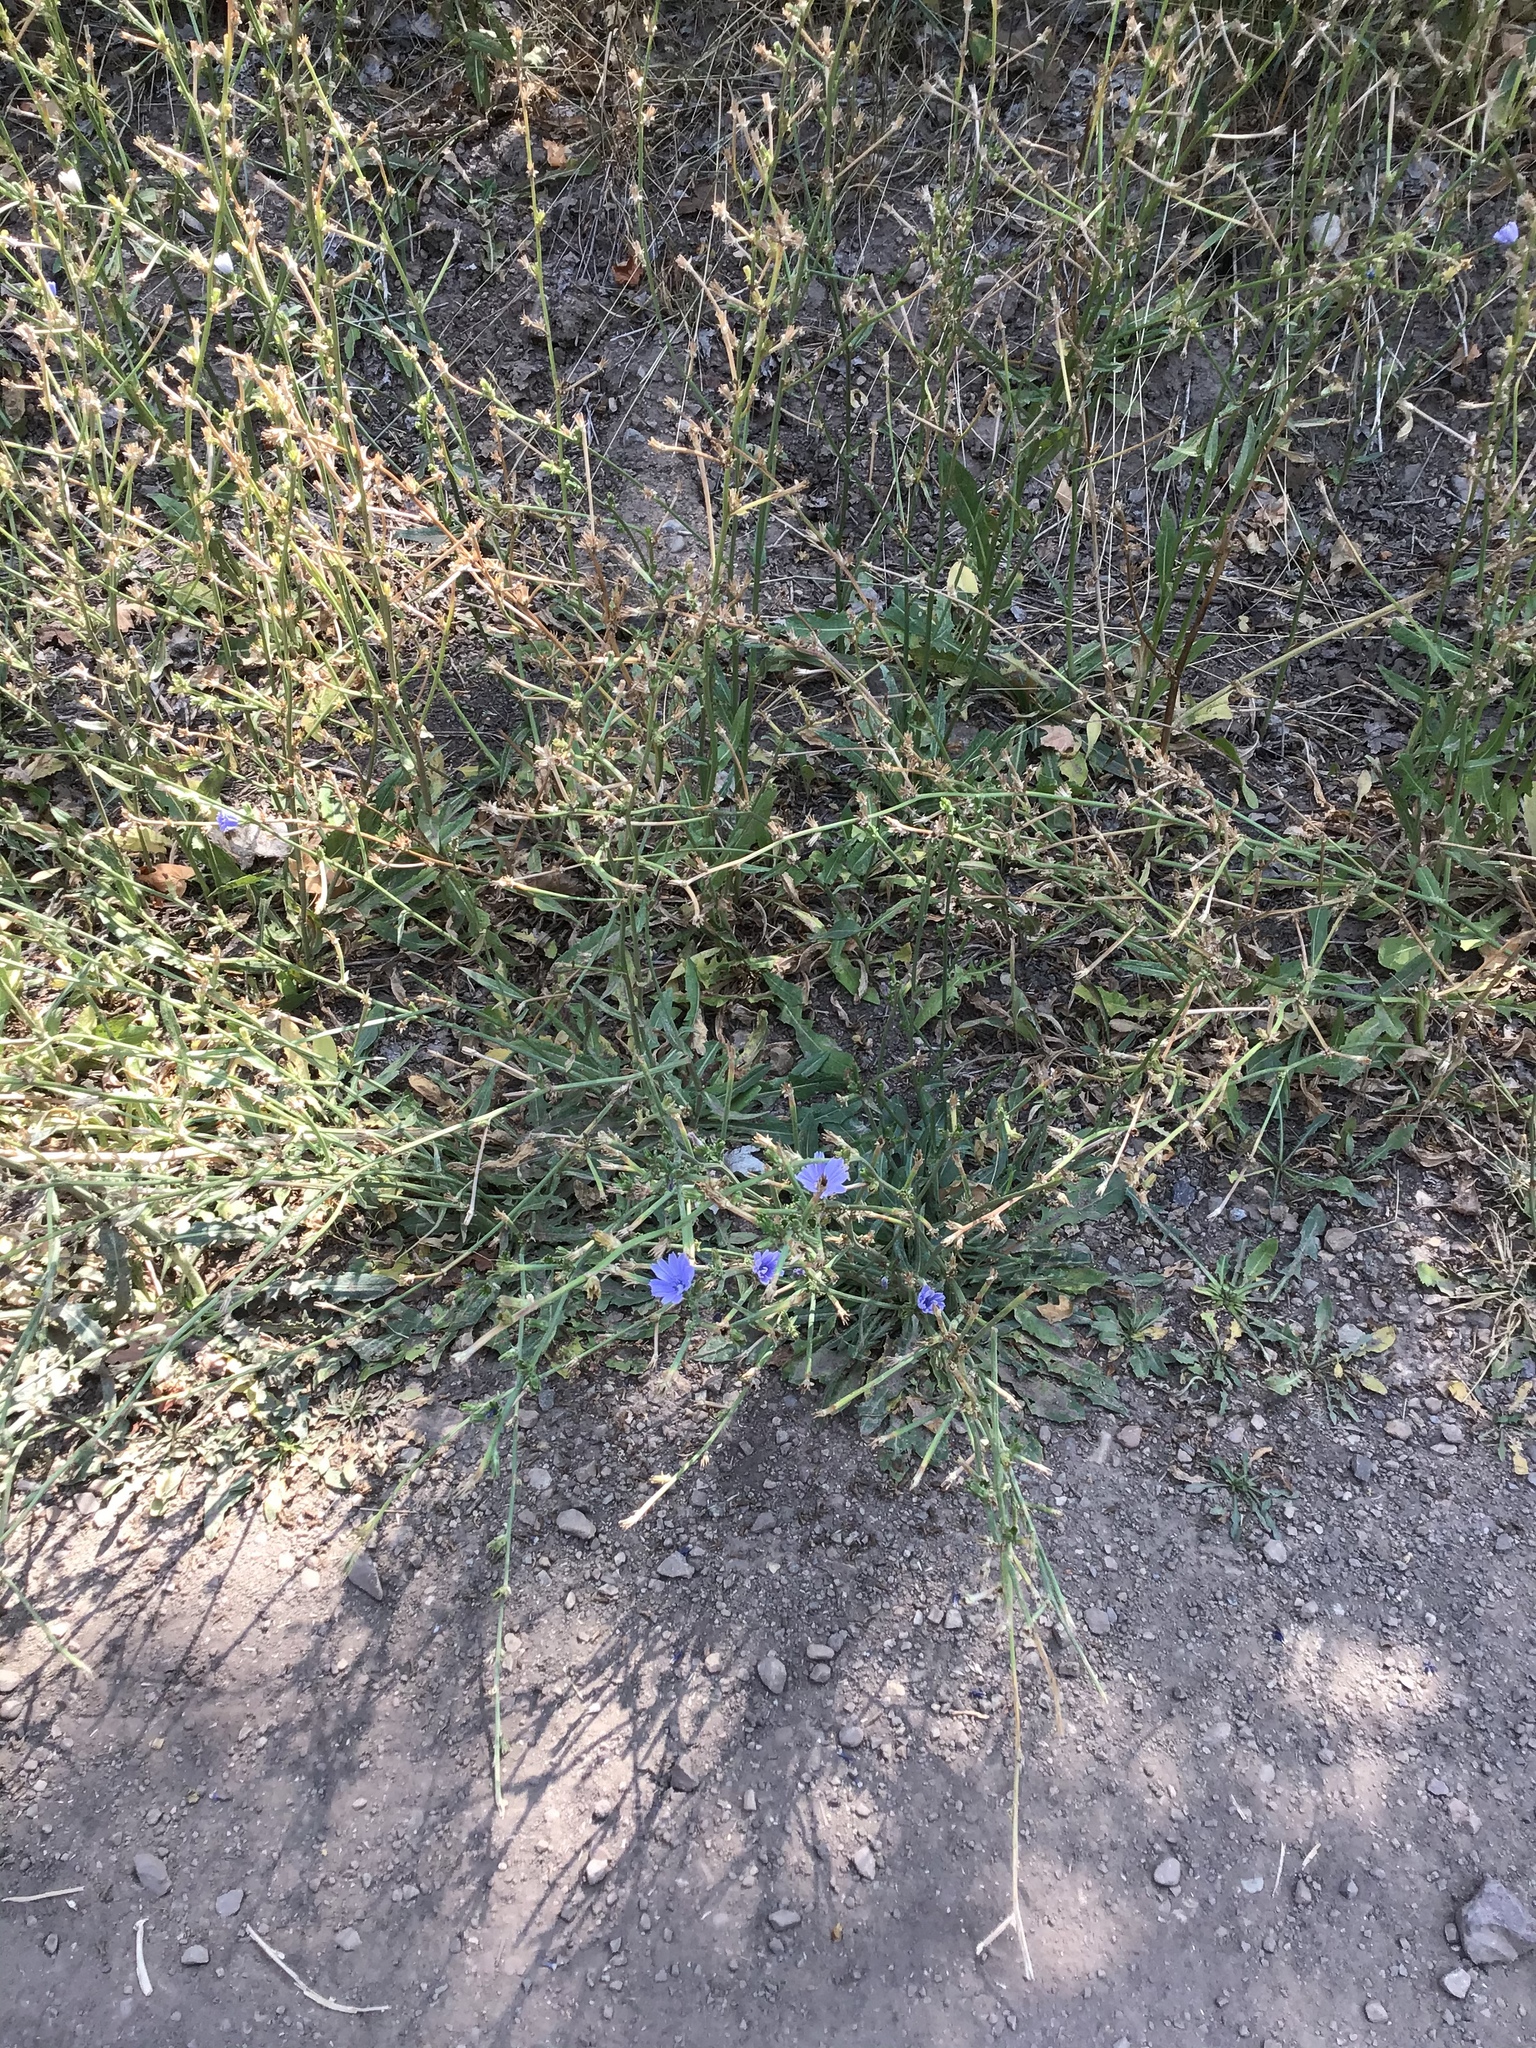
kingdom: Plantae
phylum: Tracheophyta
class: Magnoliopsida
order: Asterales
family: Asteraceae
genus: Cichorium
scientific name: Cichorium intybus
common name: Chicory
